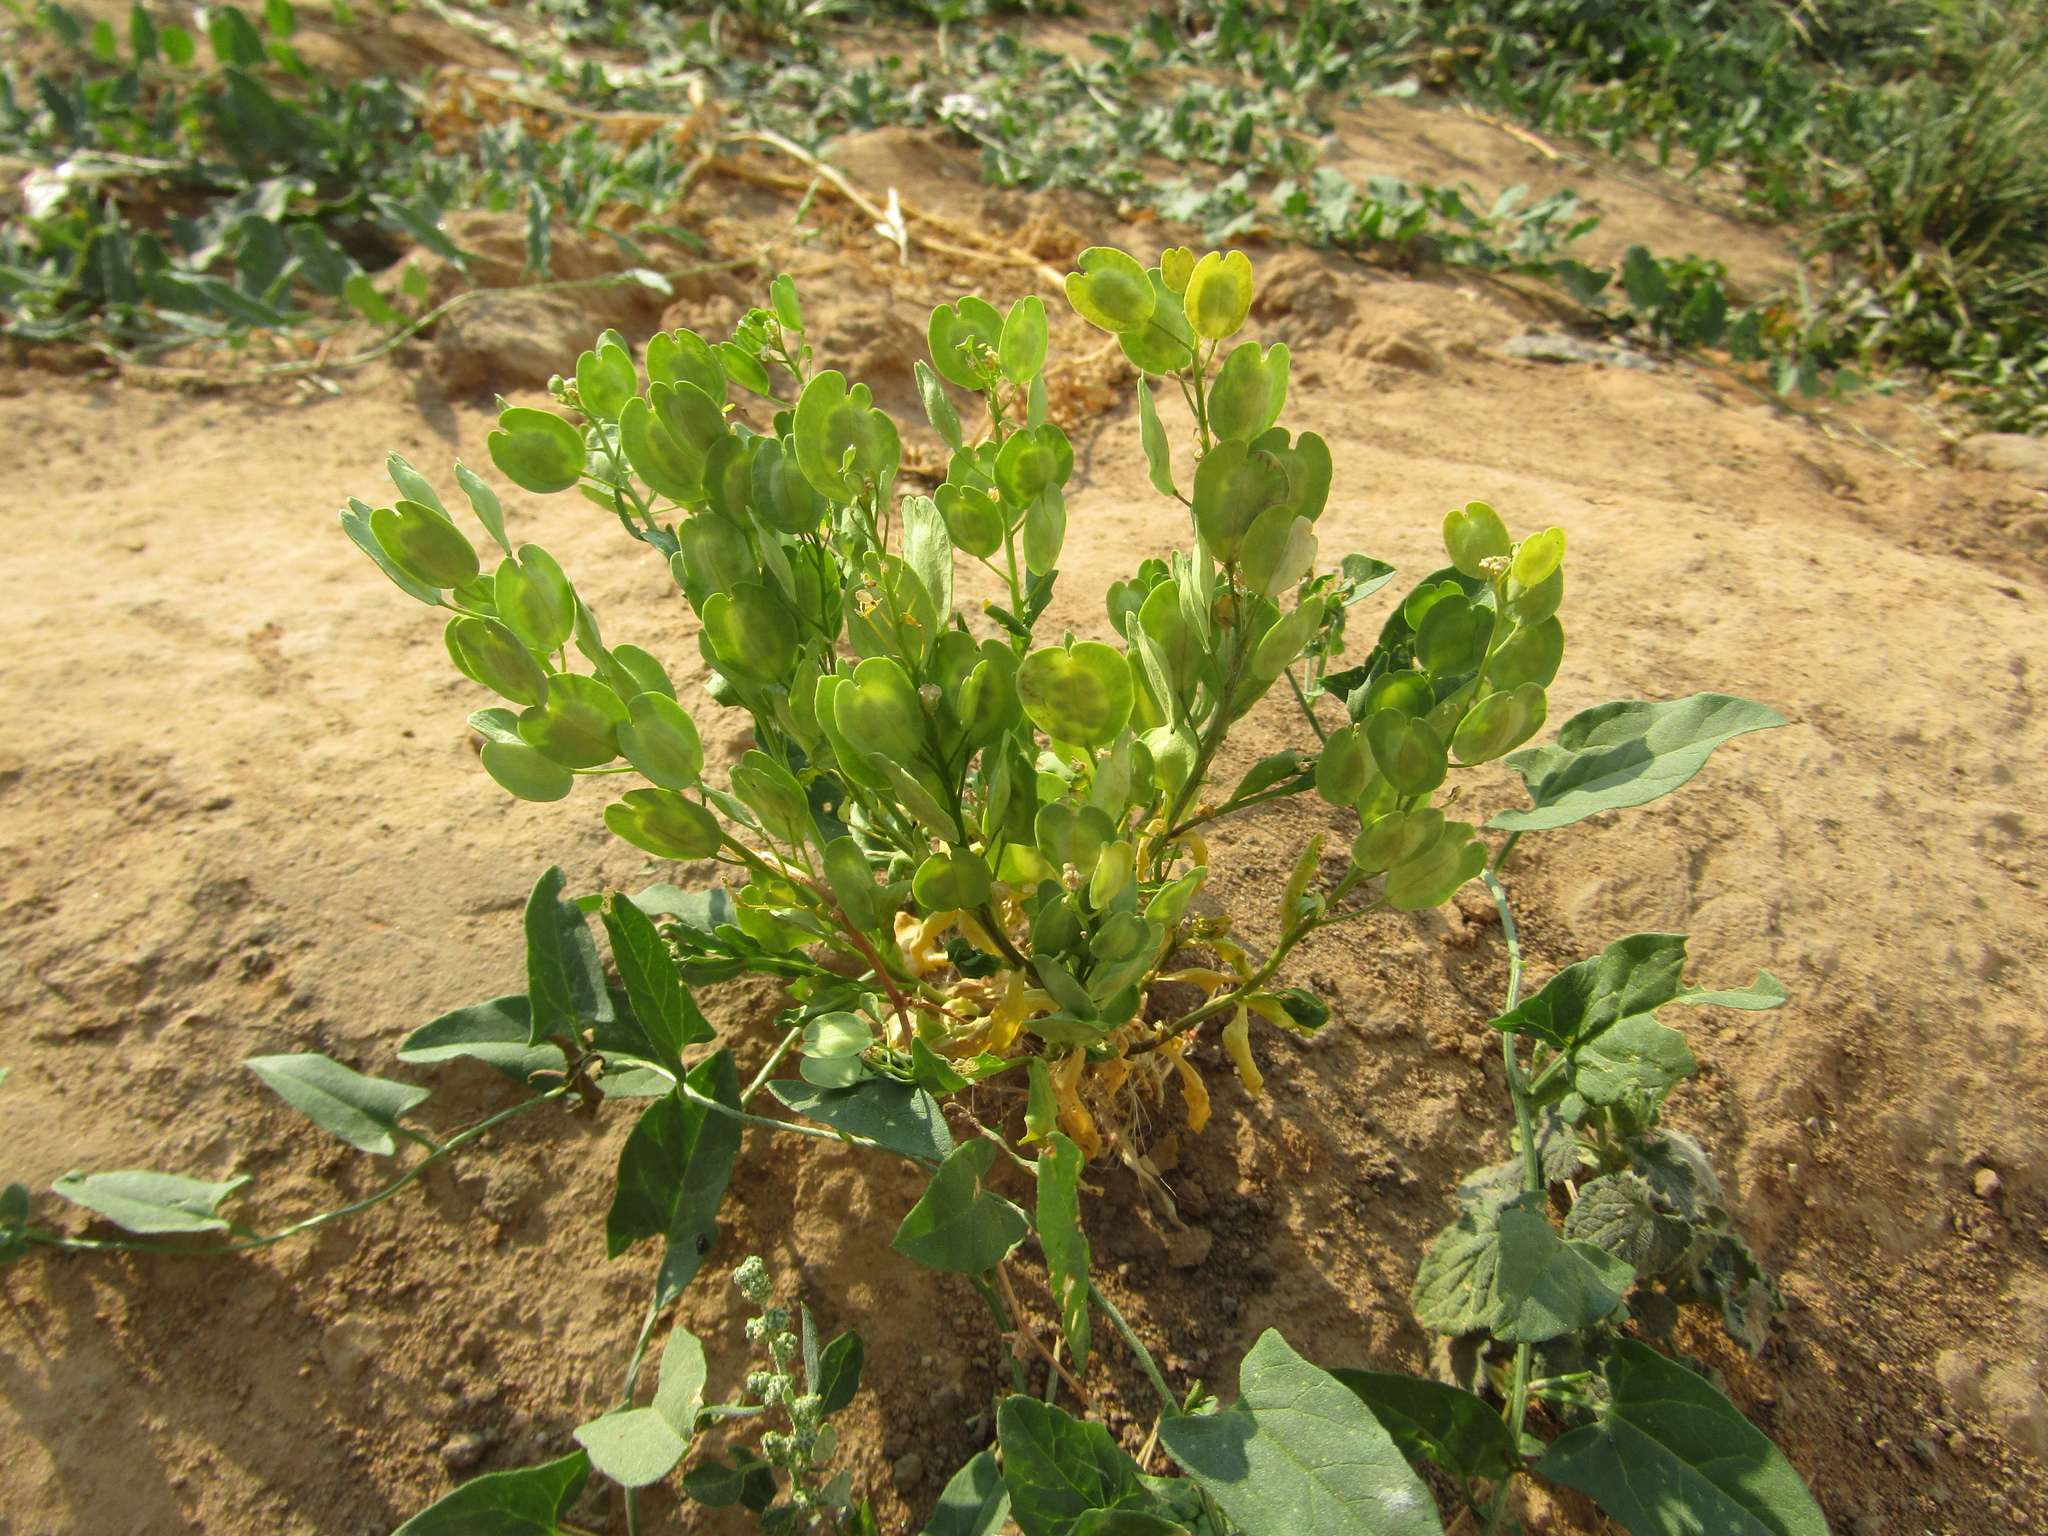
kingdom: Plantae
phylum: Tracheophyta
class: Magnoliopsida
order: Brassicales
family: Brassicaceae
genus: Thlaspi
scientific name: Thlaspi arvense
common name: Field pennycress
